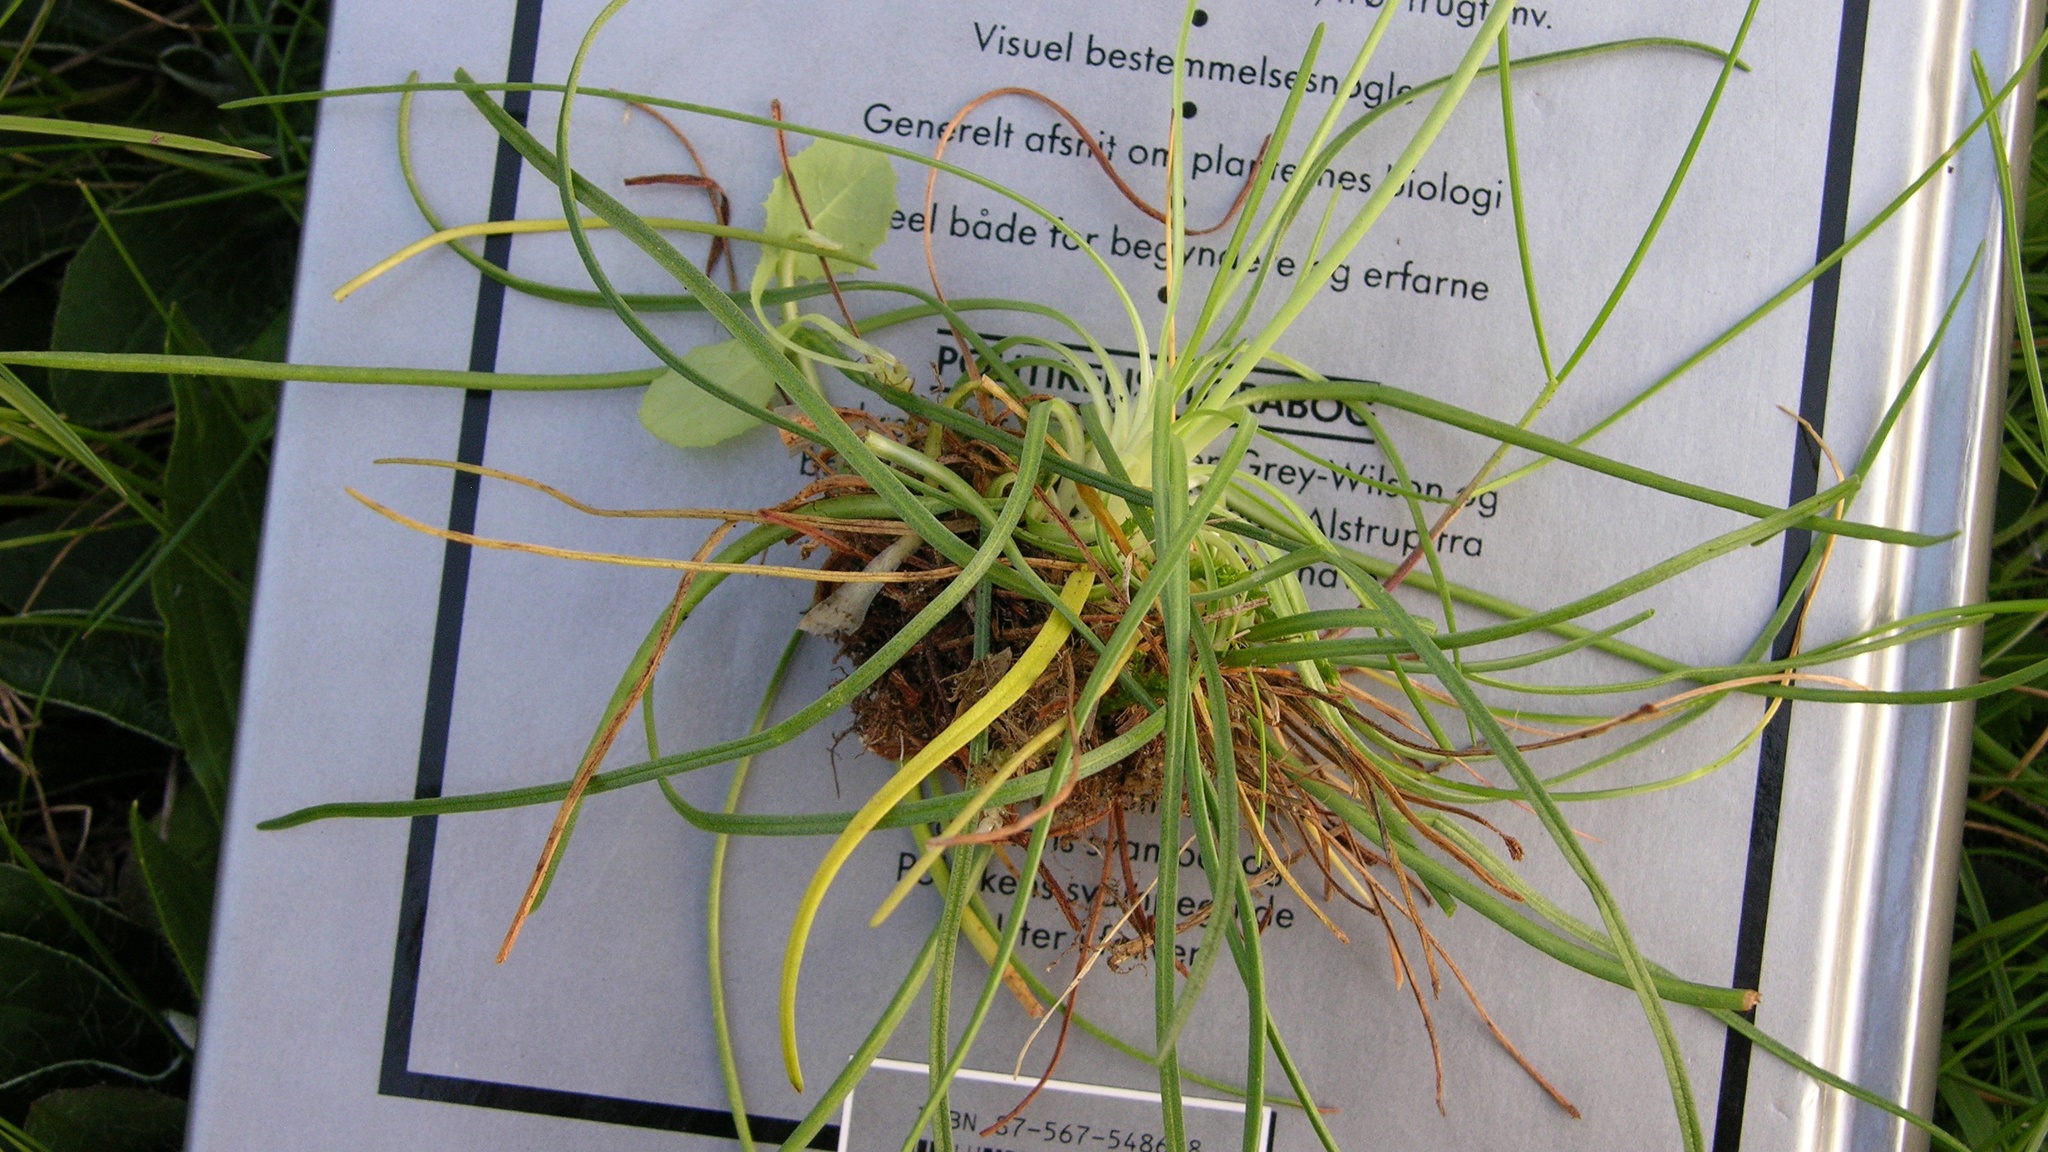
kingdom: Plantae
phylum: Tracheophyta
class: Magnoliopsida
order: Caryophyllales
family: Plumbaginaceae
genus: Armeria
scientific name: Armeria maritima
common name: Thrift
